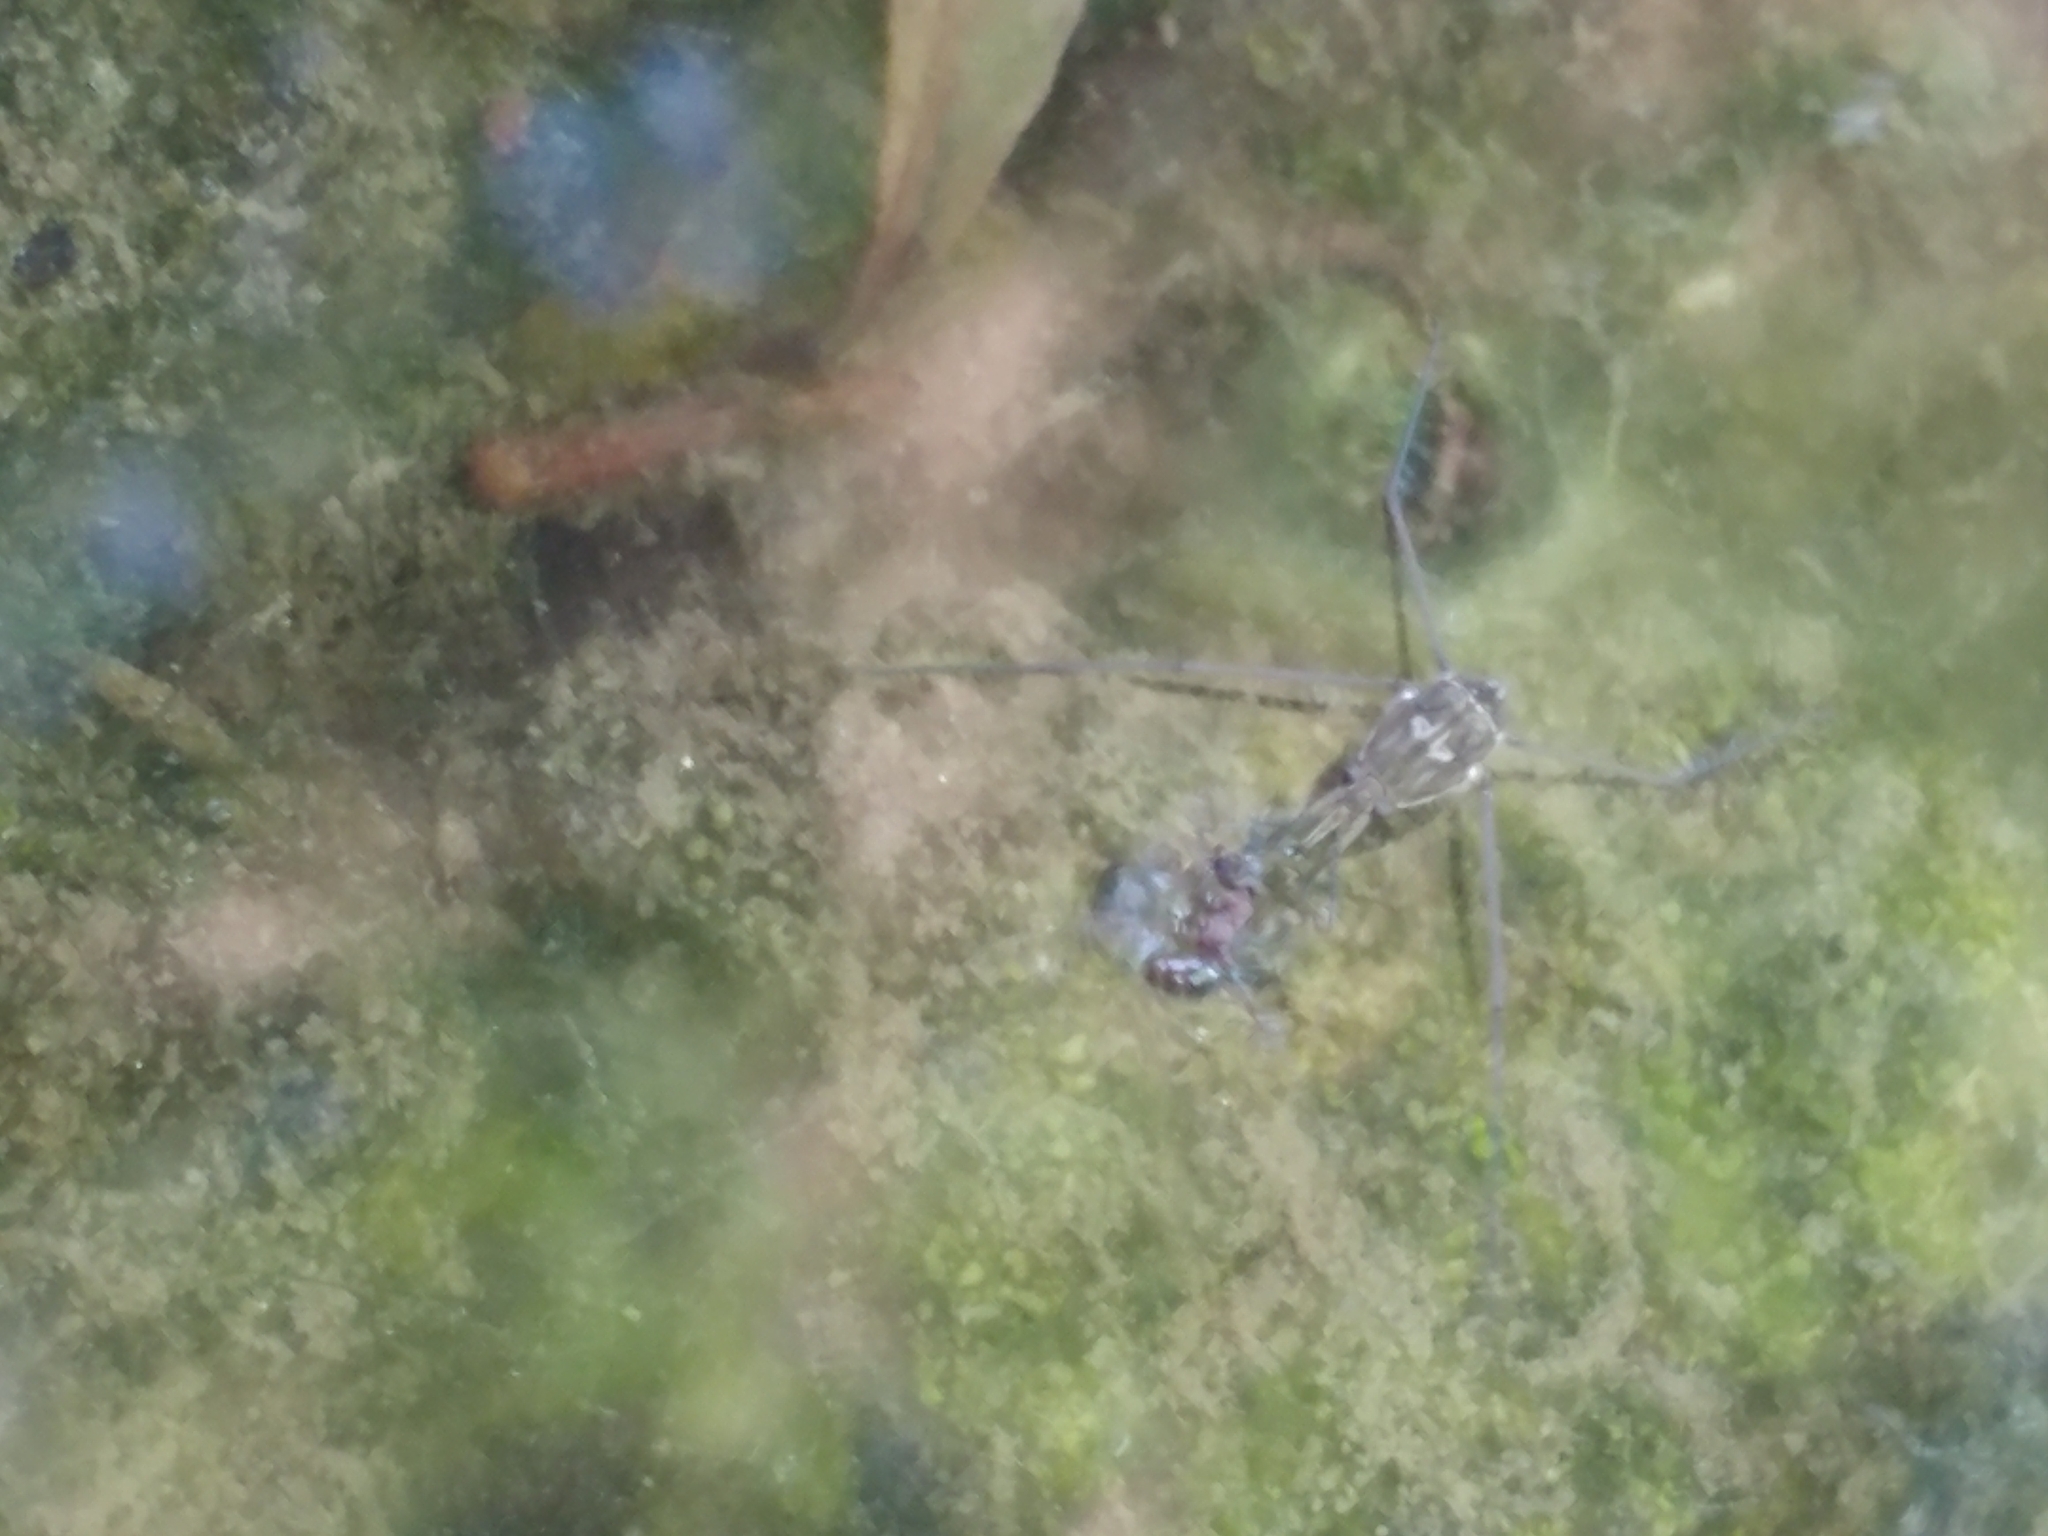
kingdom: Animalia
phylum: Arthropoda
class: Insecta
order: Hemiptera
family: Gerridae
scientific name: Gerridae
